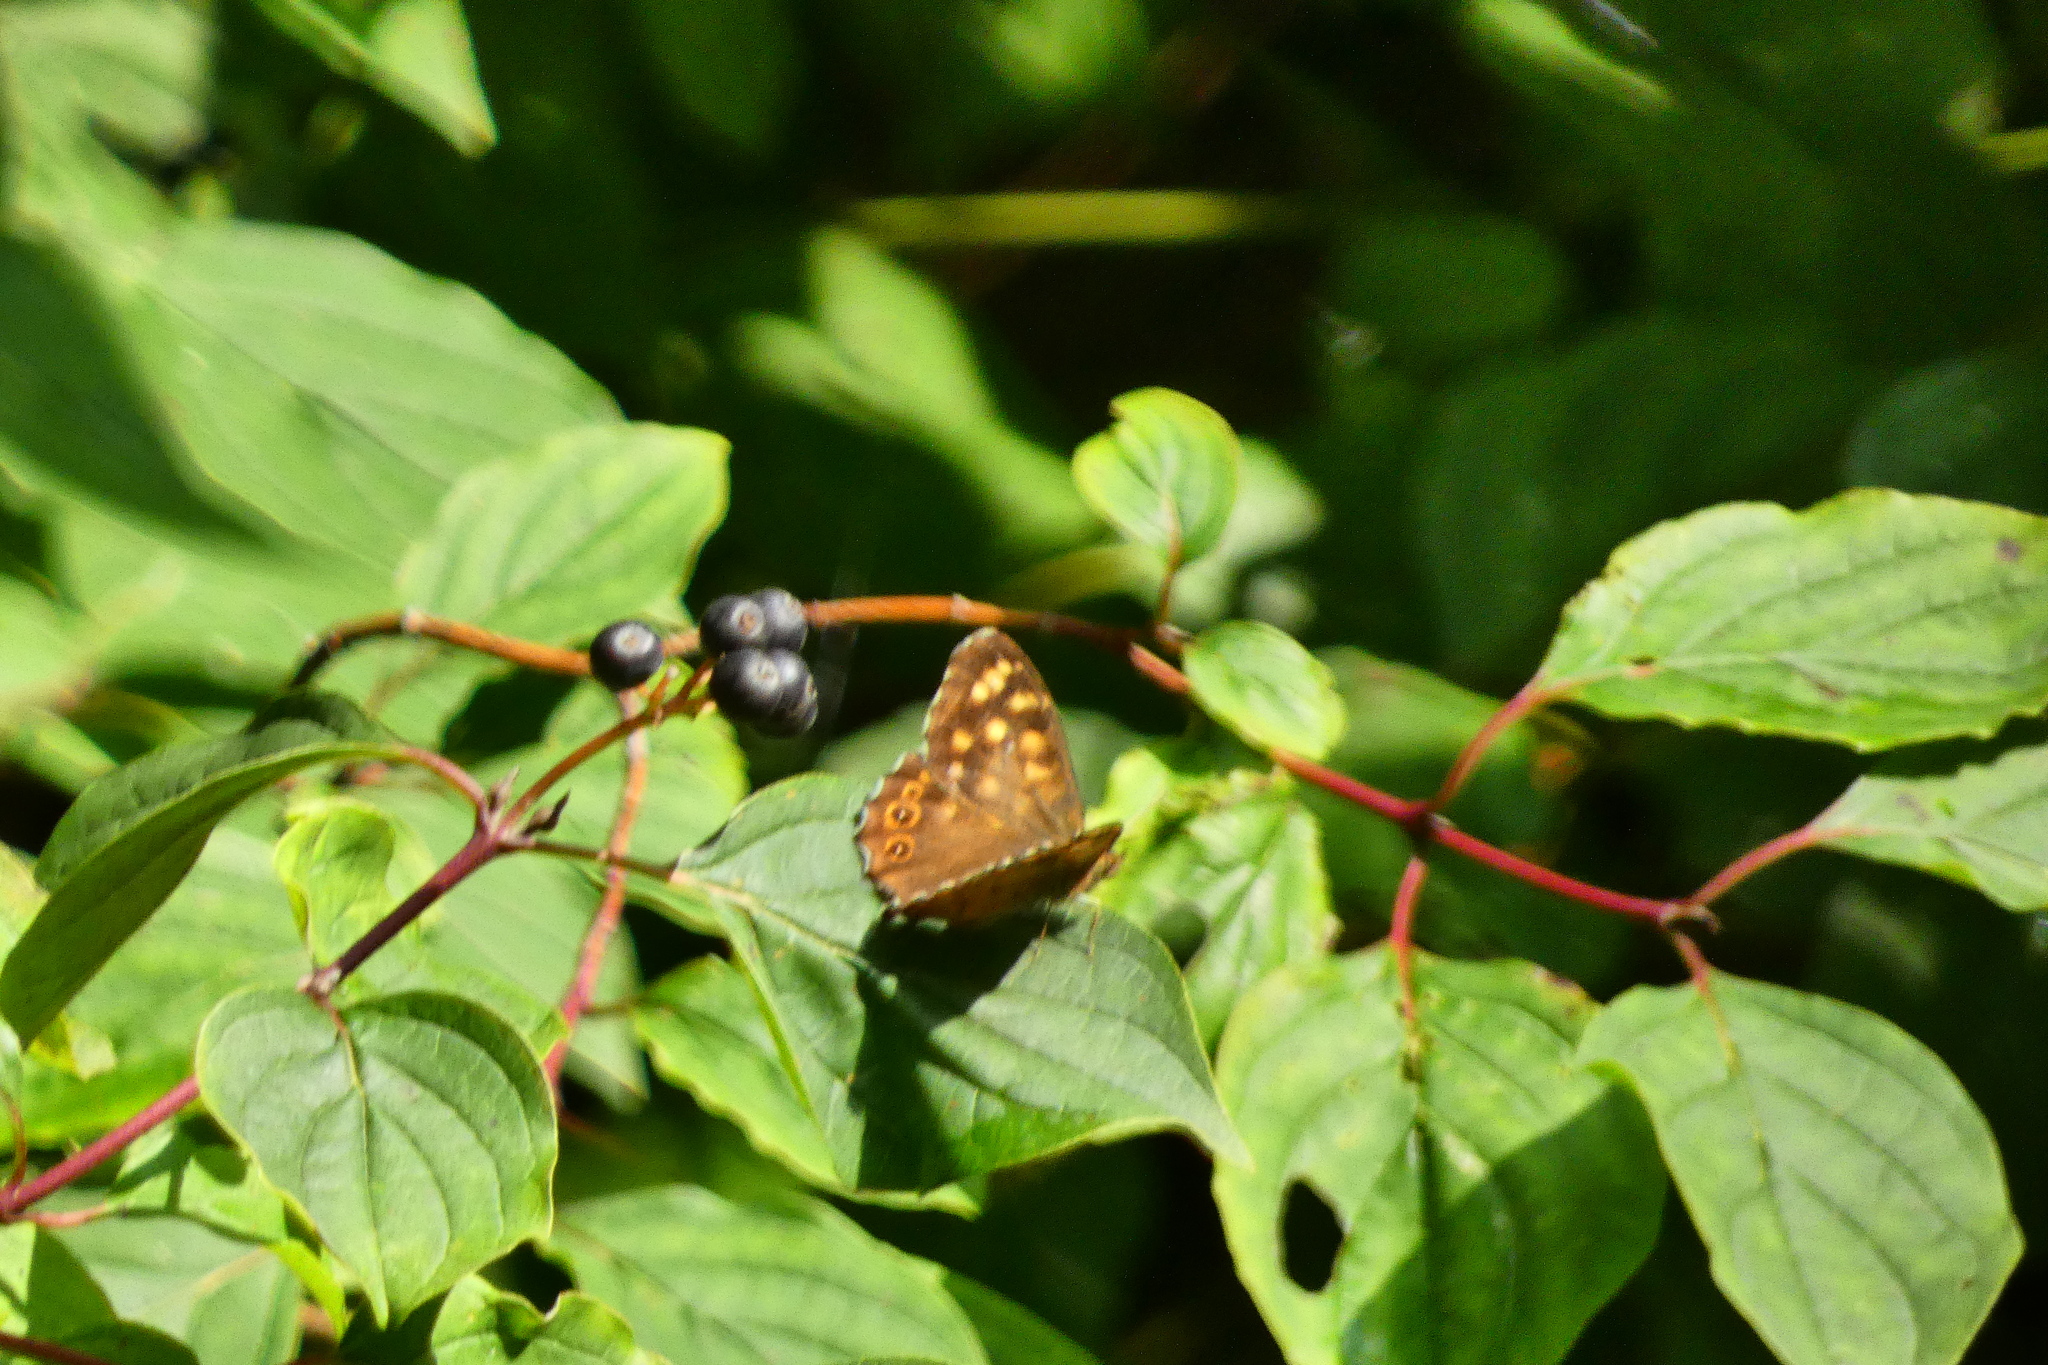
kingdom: Animalia
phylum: Arthropoda
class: Insecta
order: Lepidoptera
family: Nymphalidae
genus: Pararge
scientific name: Pararge aegeria
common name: Speckled wood
